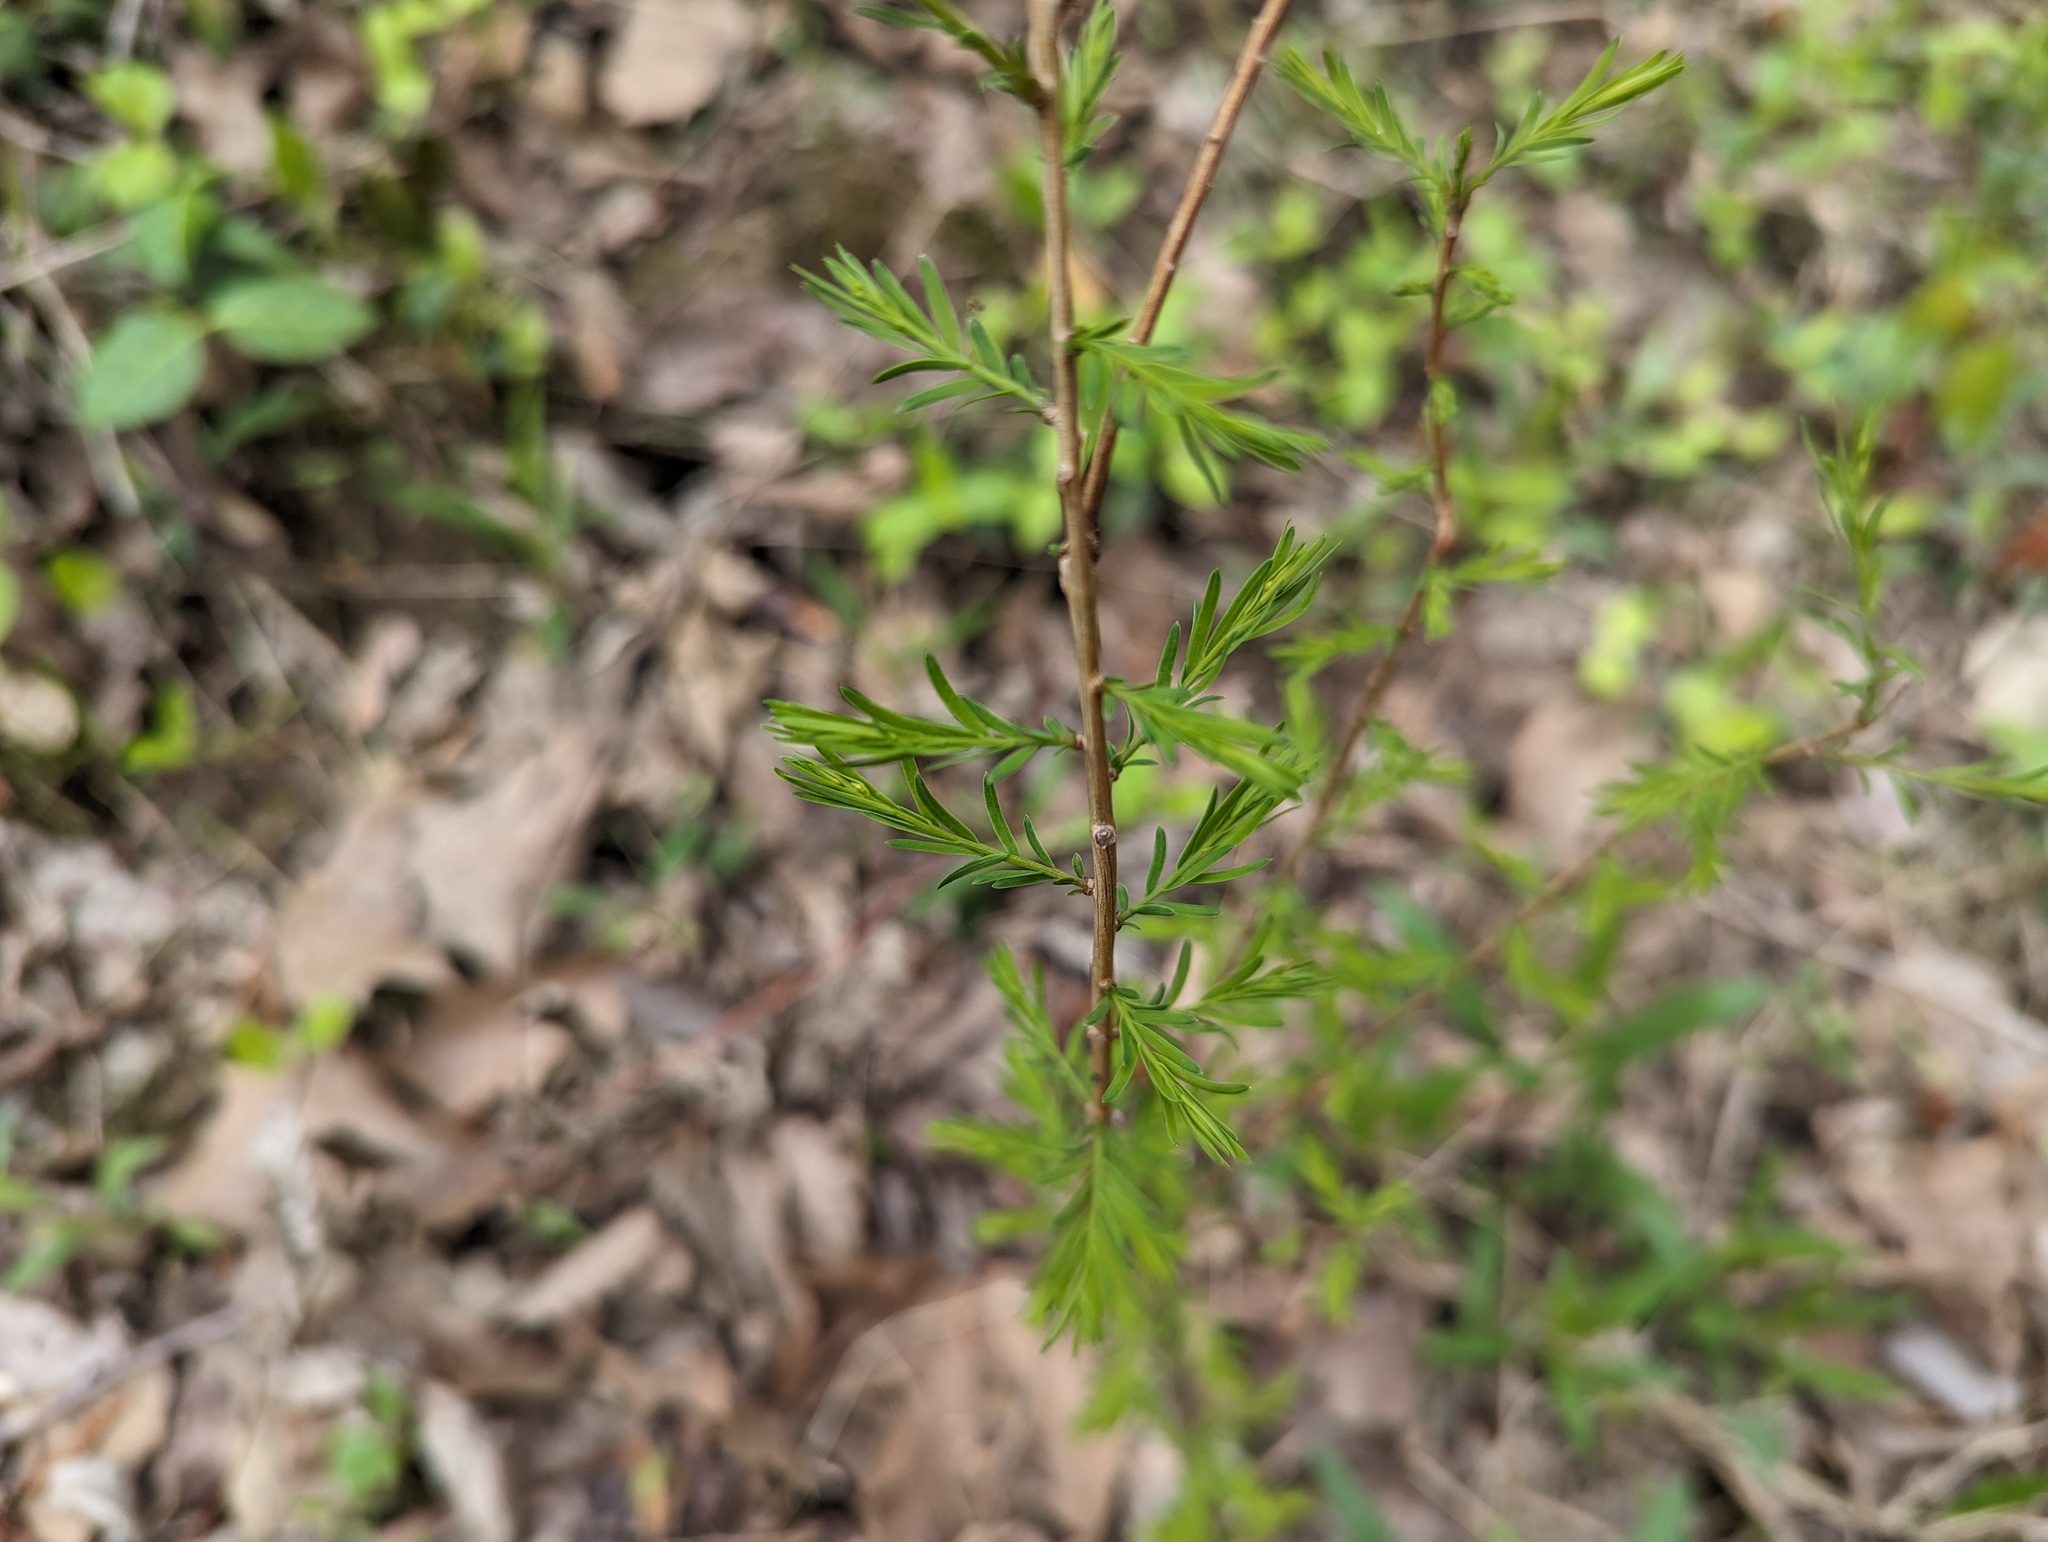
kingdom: Plantae
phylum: Tracheophyta
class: Pinopsida
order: Pinales
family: Cupressaceae
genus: Taxodium
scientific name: Taxodium distichum
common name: Bald cypress
